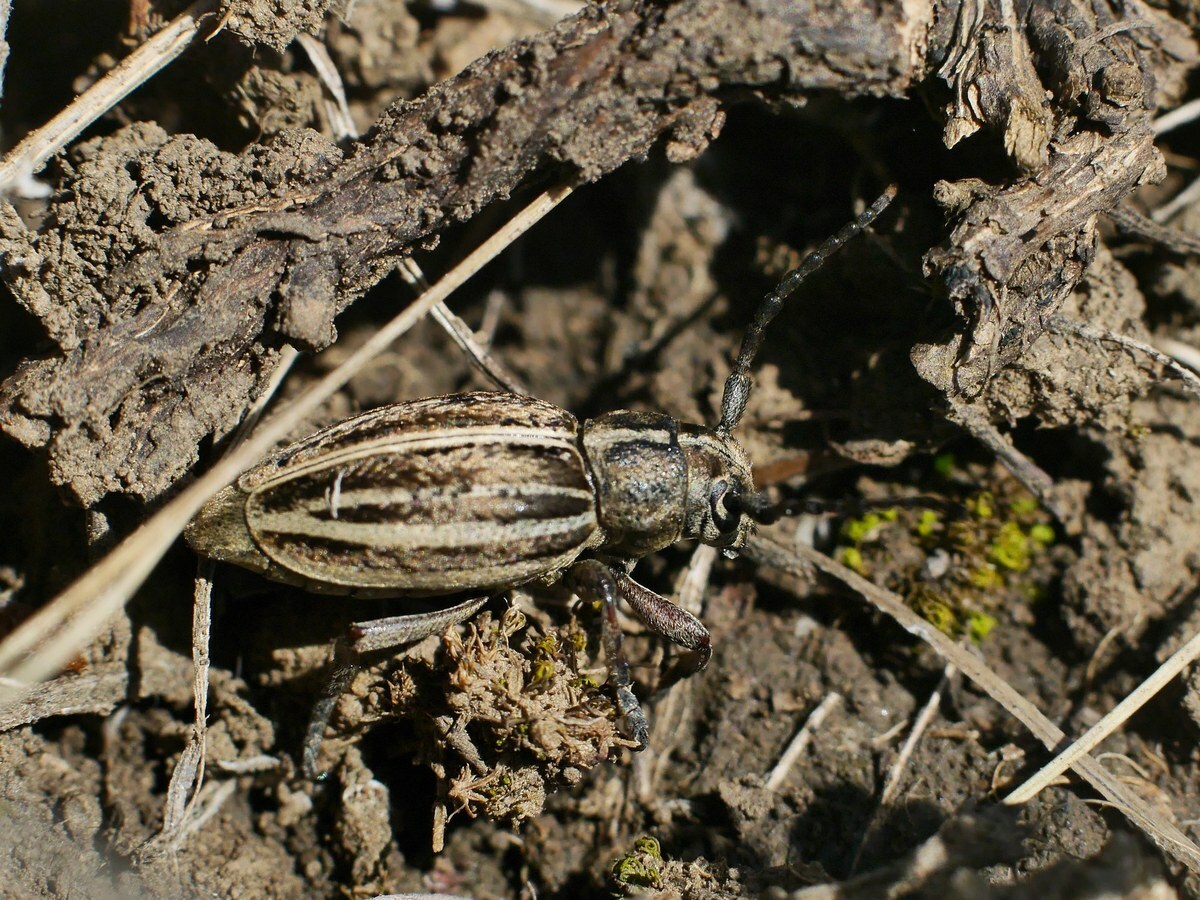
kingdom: Animalia
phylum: Arthropoda
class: Insecta
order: Coleoptera
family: Cerambycidae
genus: Dorcadion
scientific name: Dorcadion holosericeum
